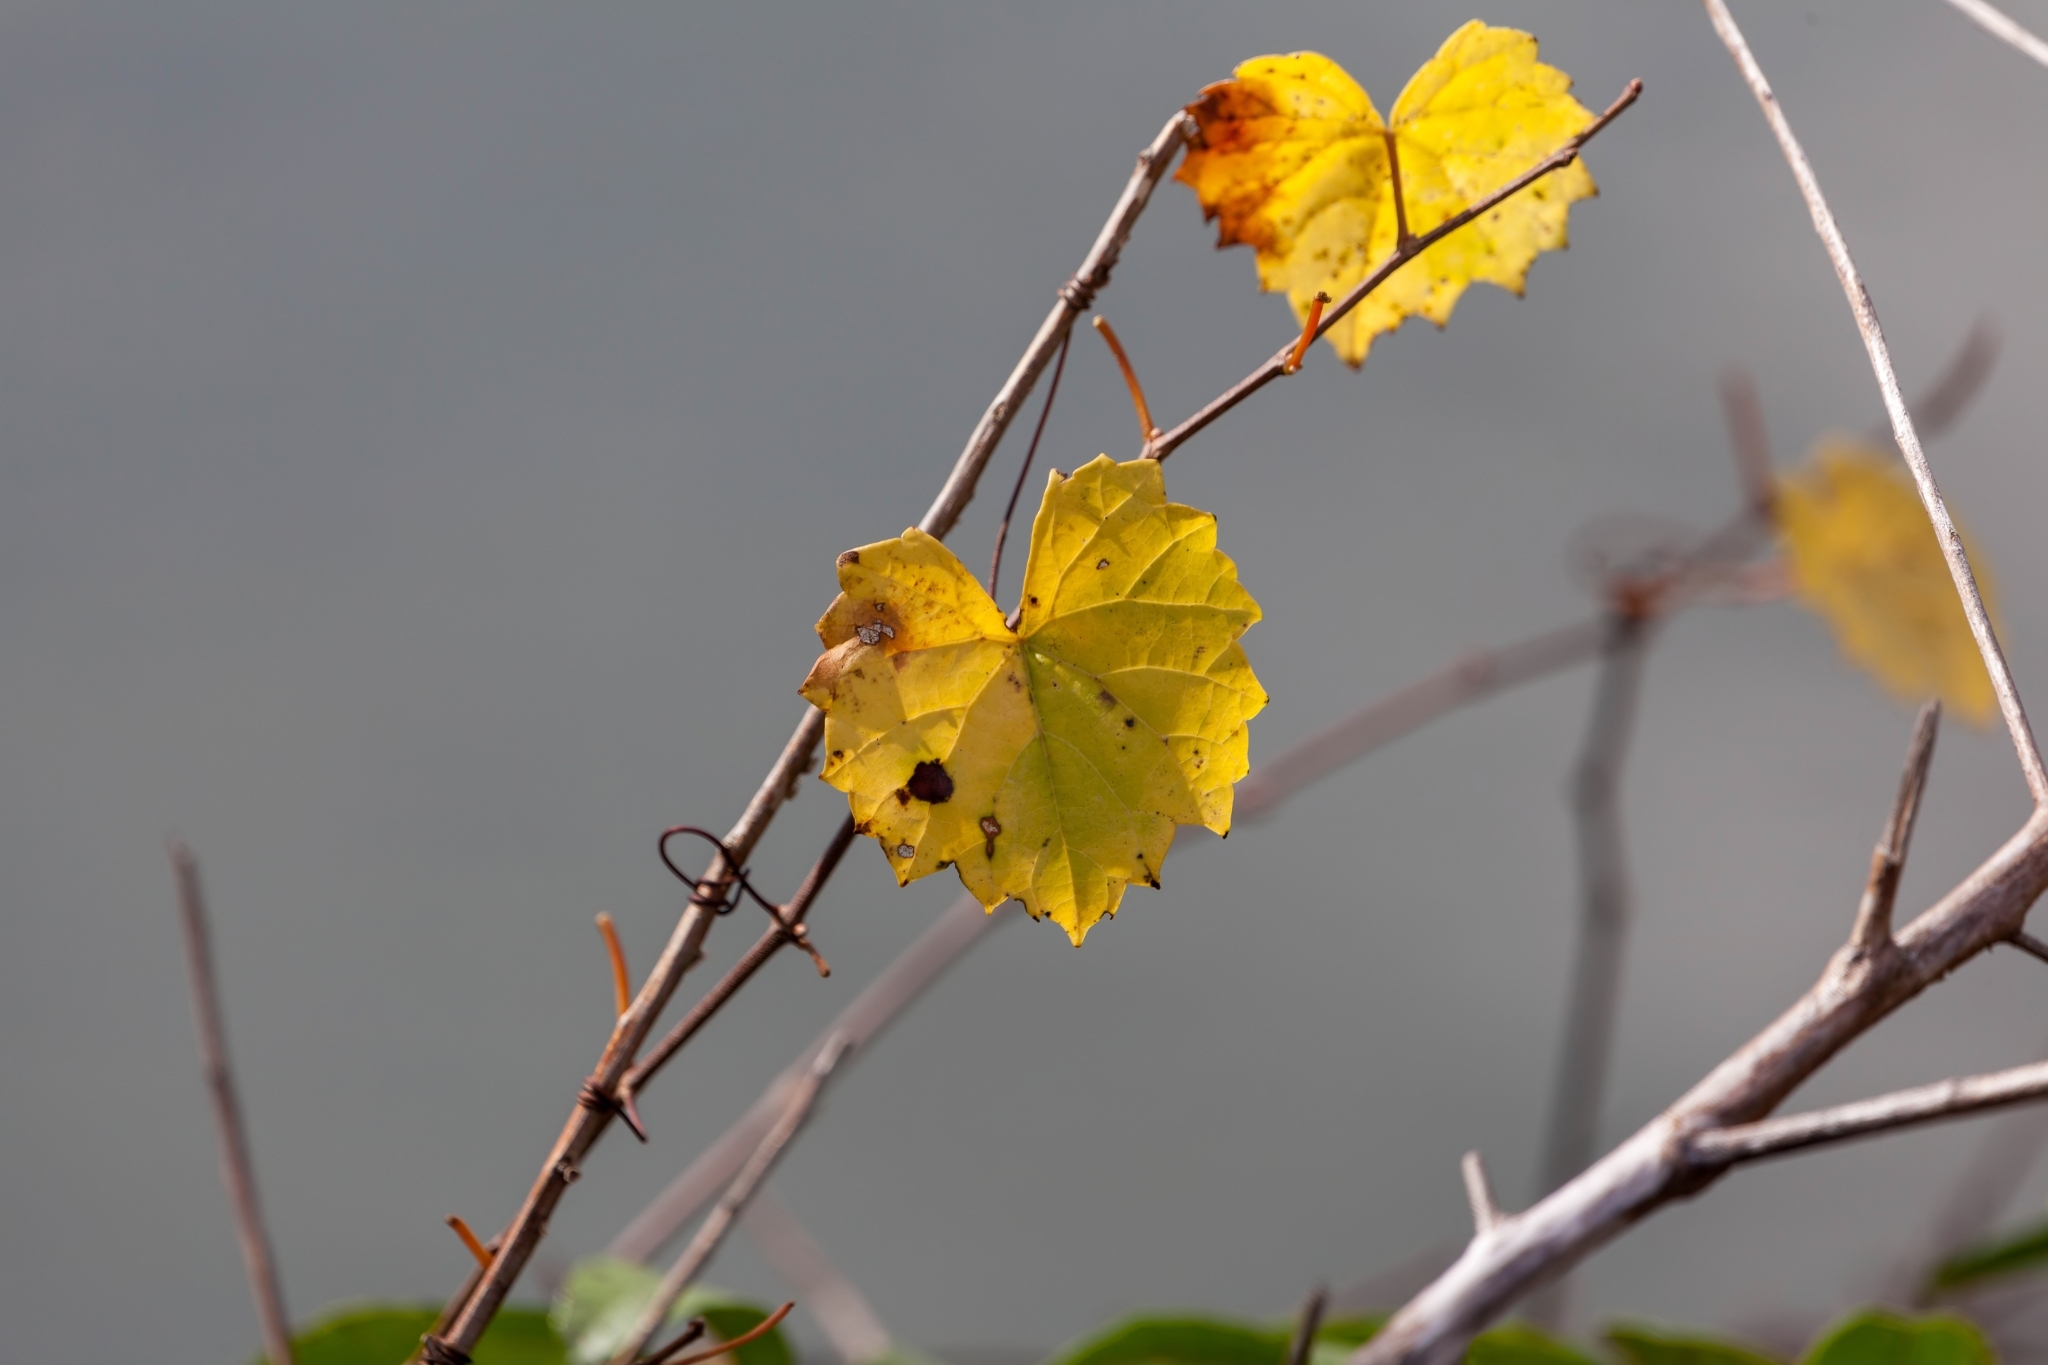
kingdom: Plantae
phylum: Tracheophyta
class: Magnoliopsida
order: Vitales
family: Vitaceae
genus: Vitis
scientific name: Vitis rotundifolia
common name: Muscadine grape
